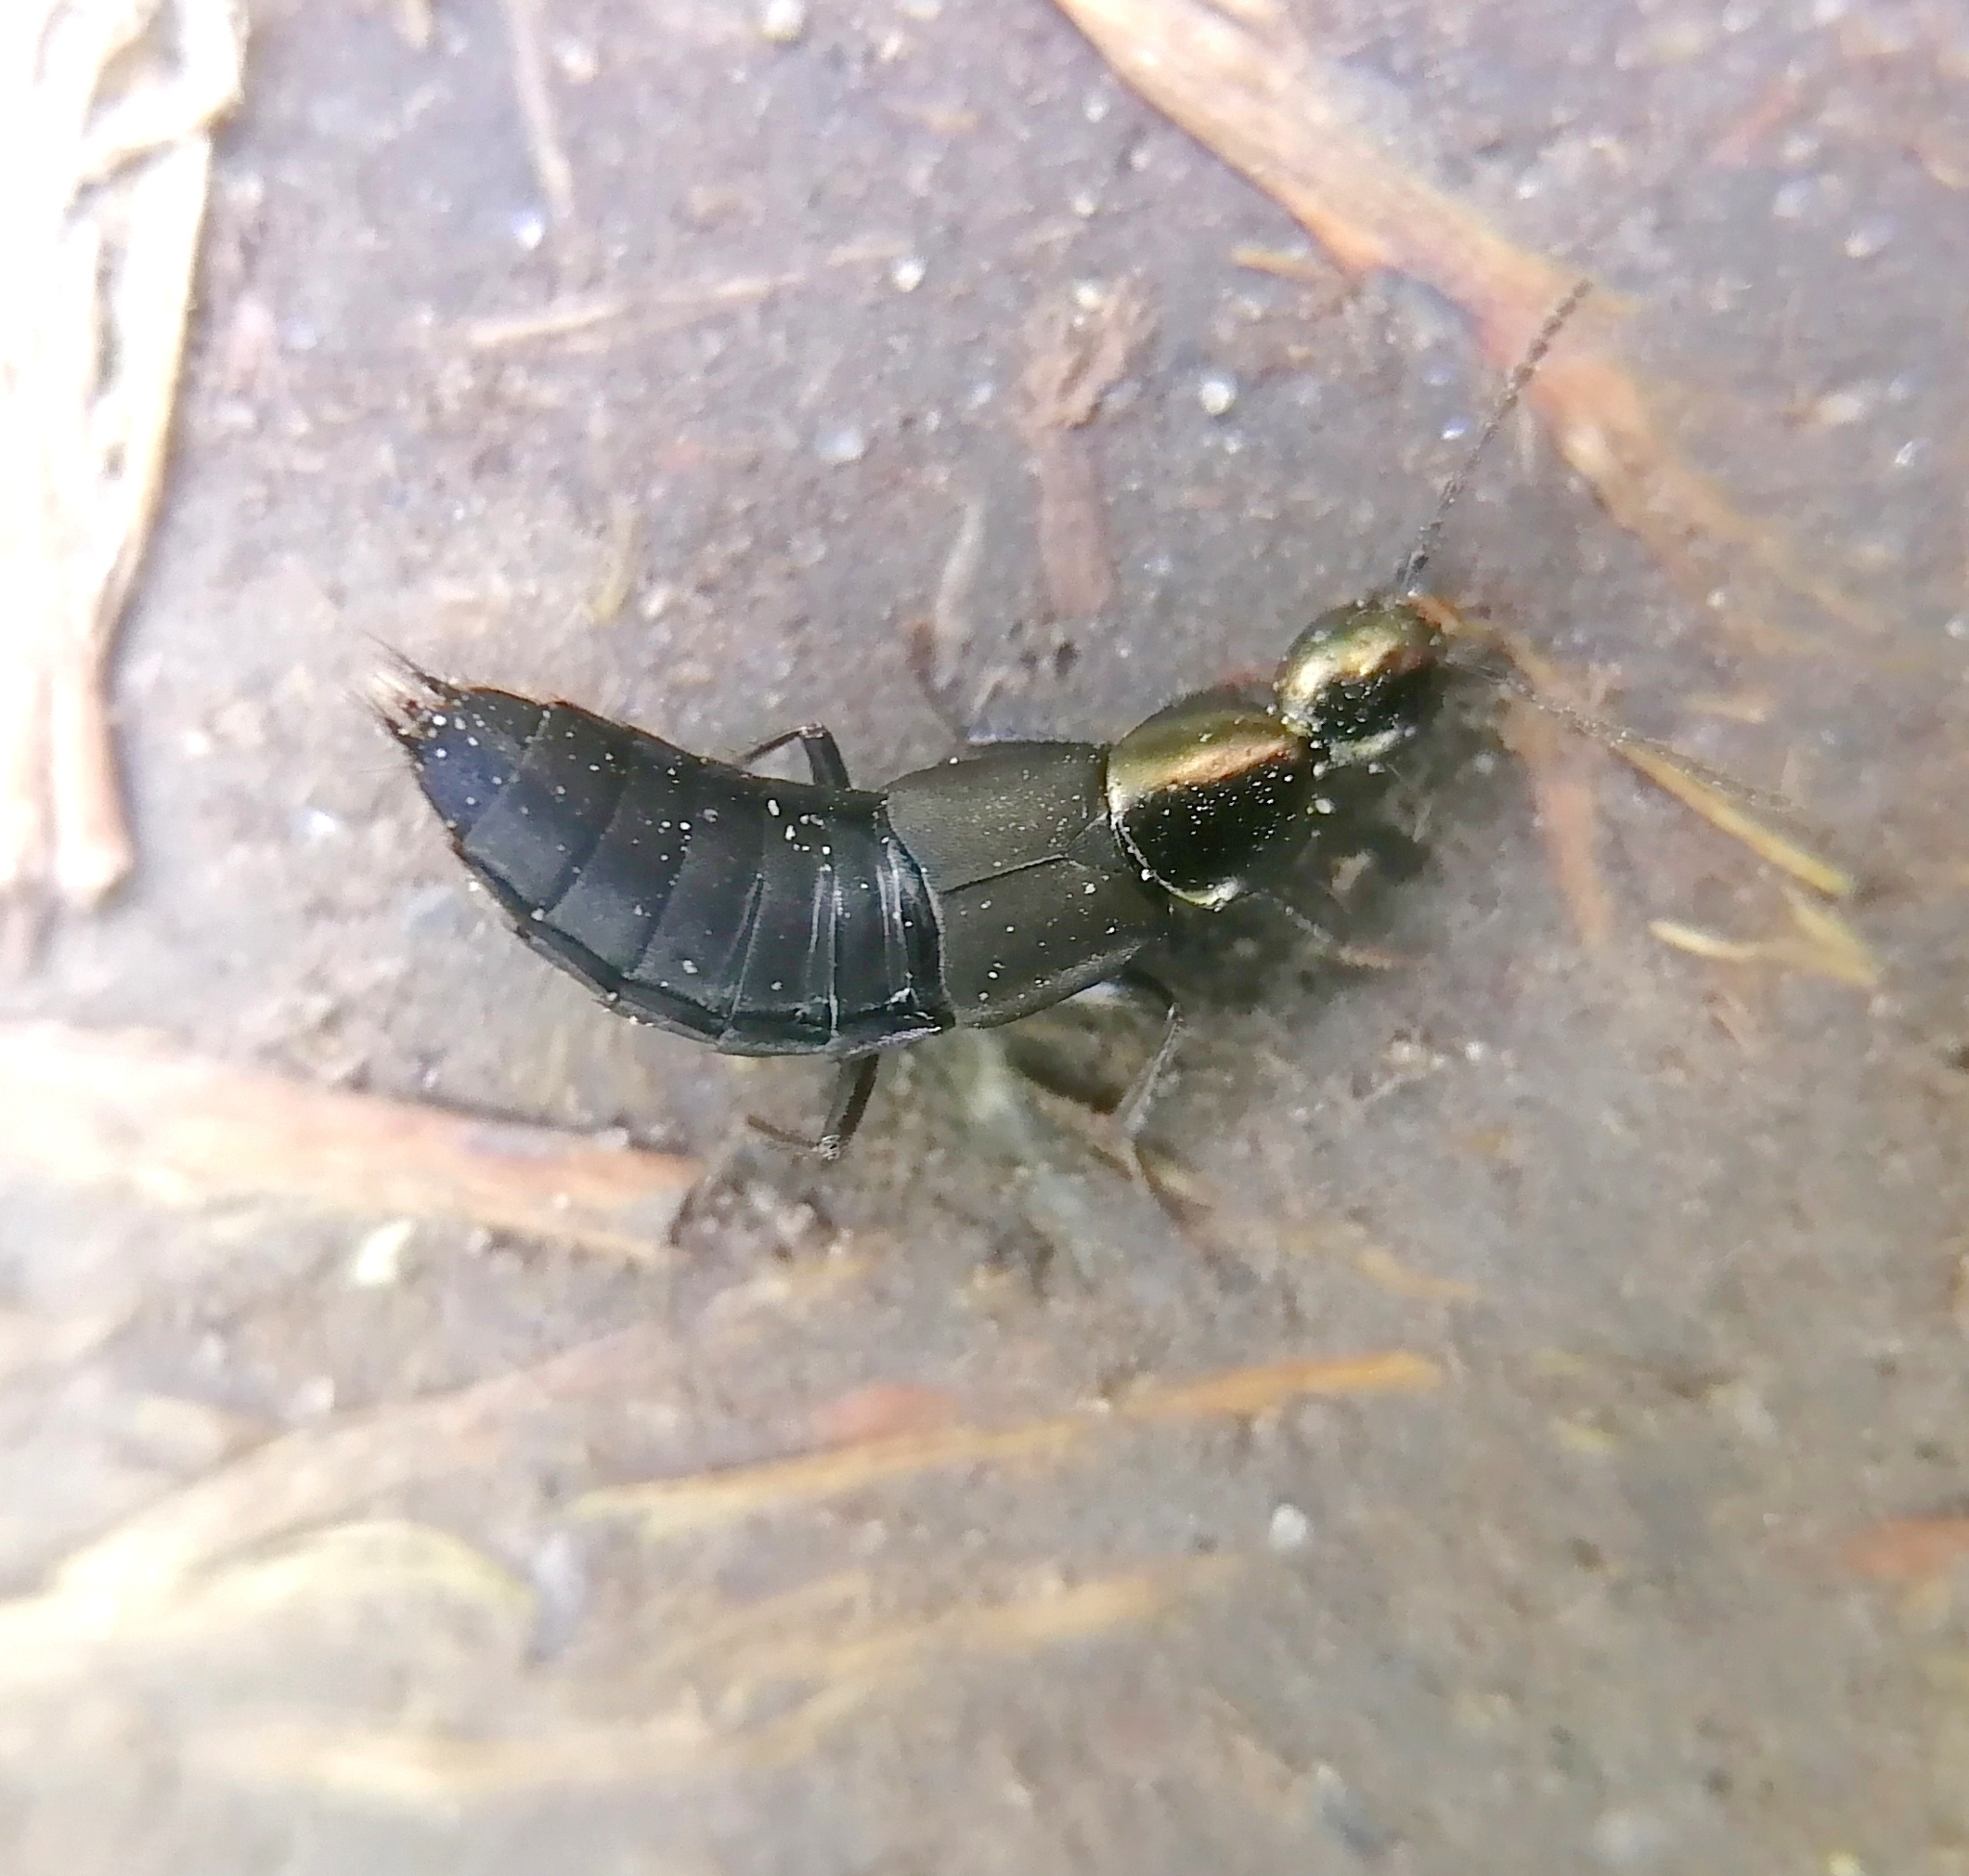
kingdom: Animalia
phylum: Arthropoda
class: Insecta
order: Coleoptera
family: Staphylinidae
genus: Philonthus
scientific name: Philonthus decorus
